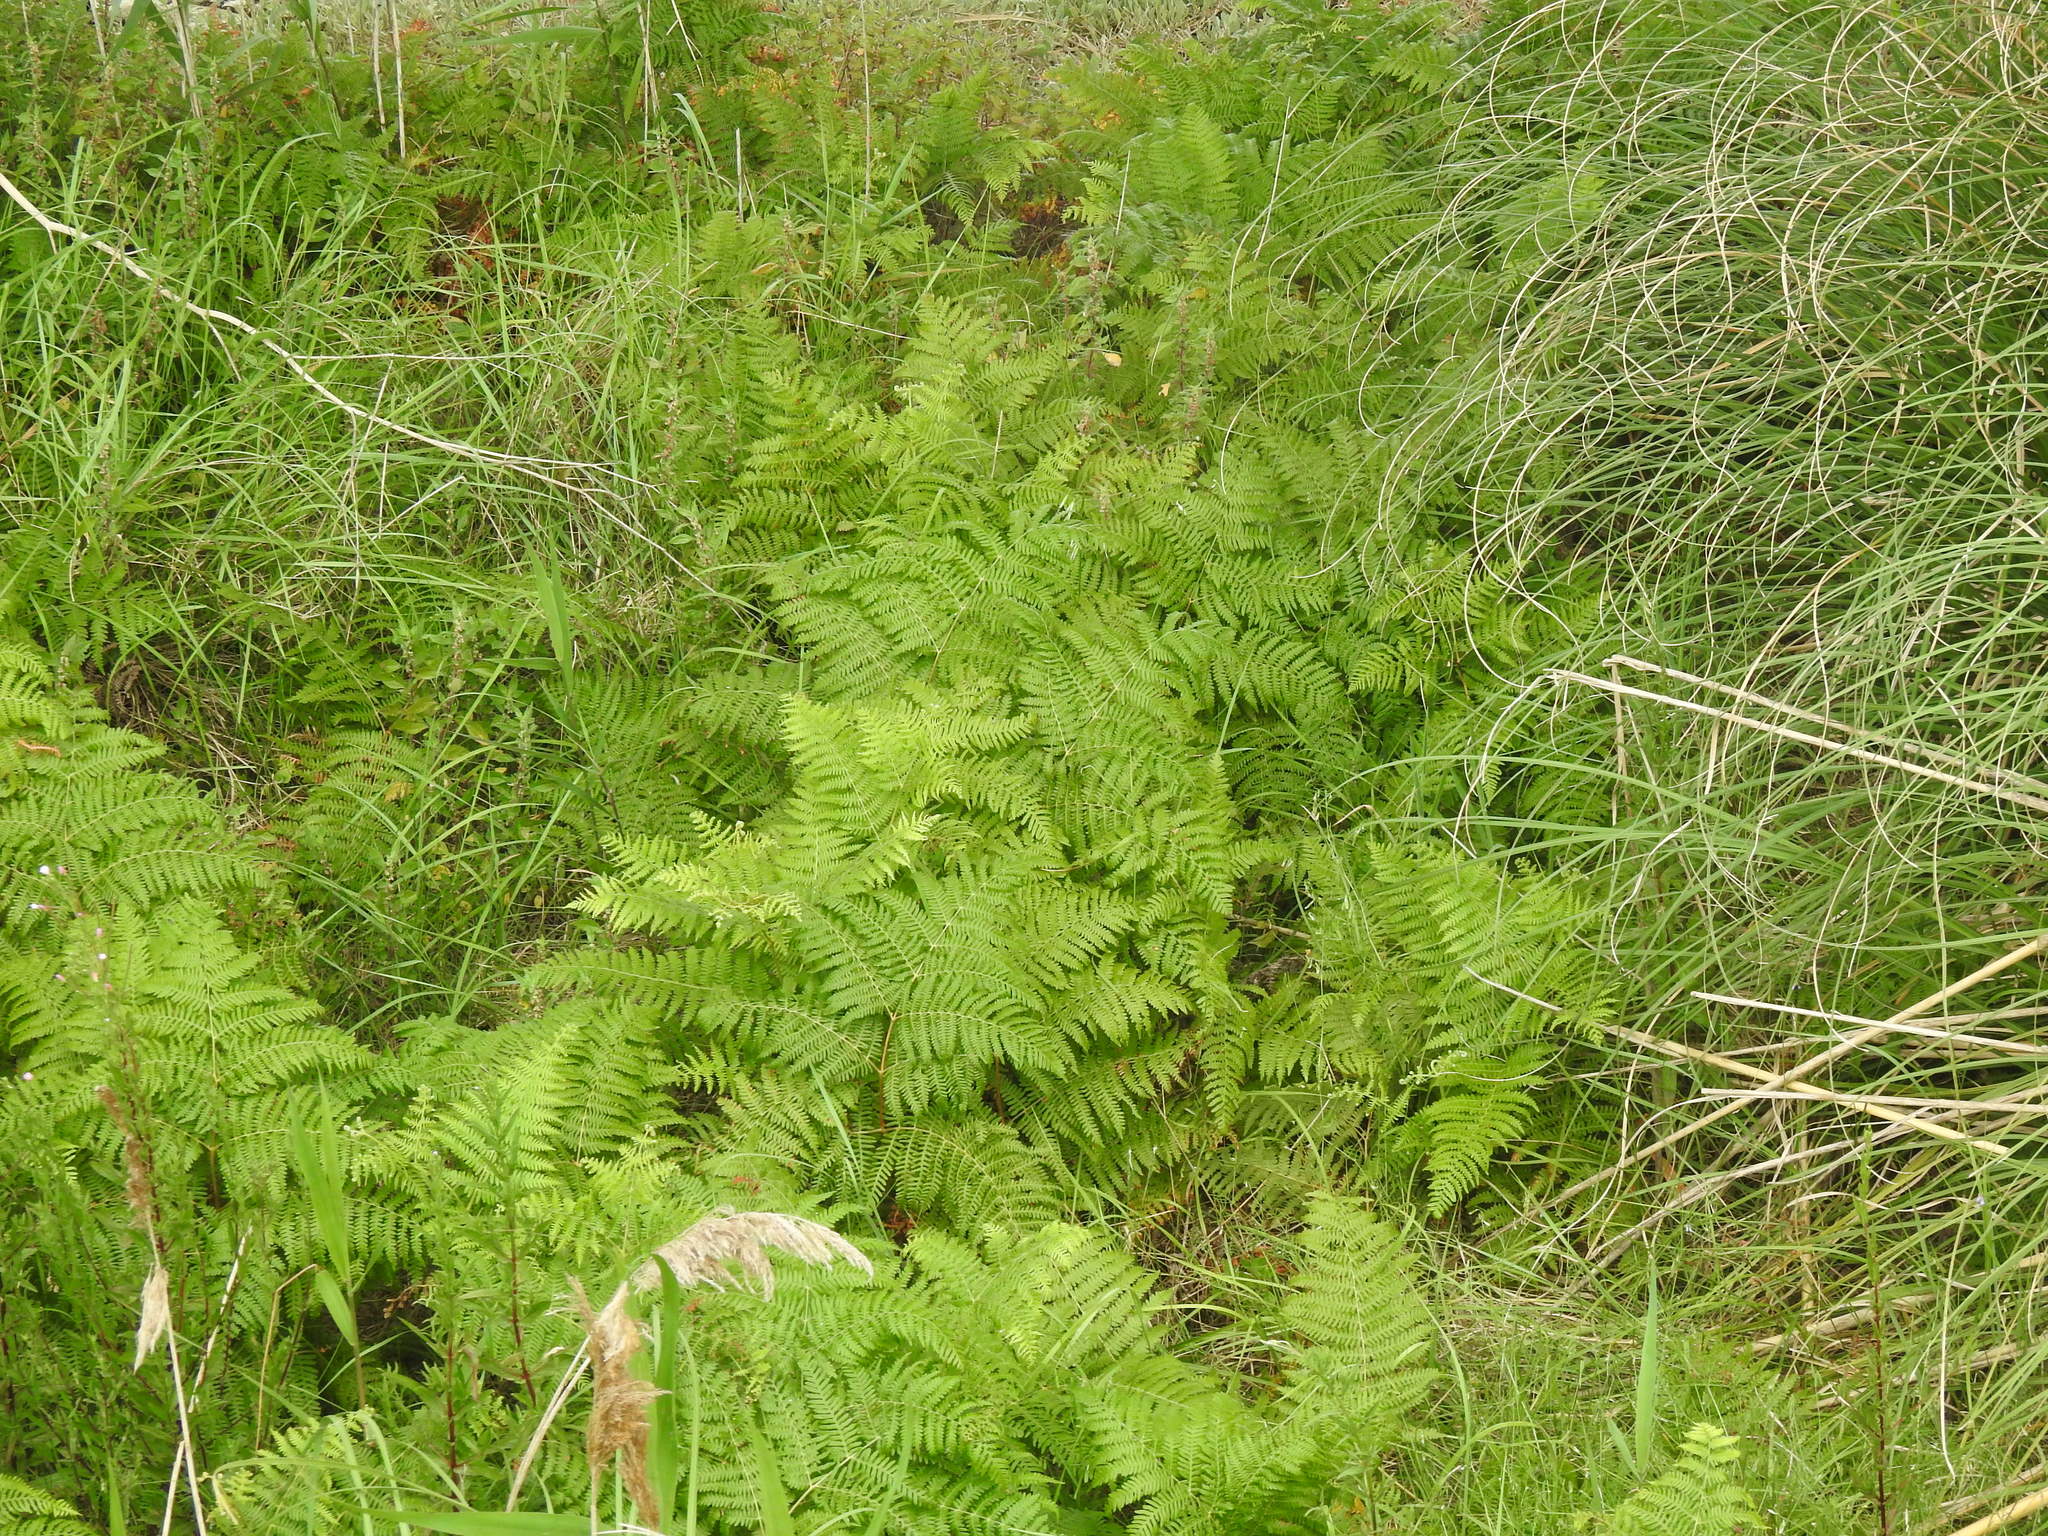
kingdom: Plantae
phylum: Tracheophyta
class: Polypodiopsida
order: Polypodiales
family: Dennstaedtiaceae
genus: Pteridium
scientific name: Pteridium aquilinum
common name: Bracken
